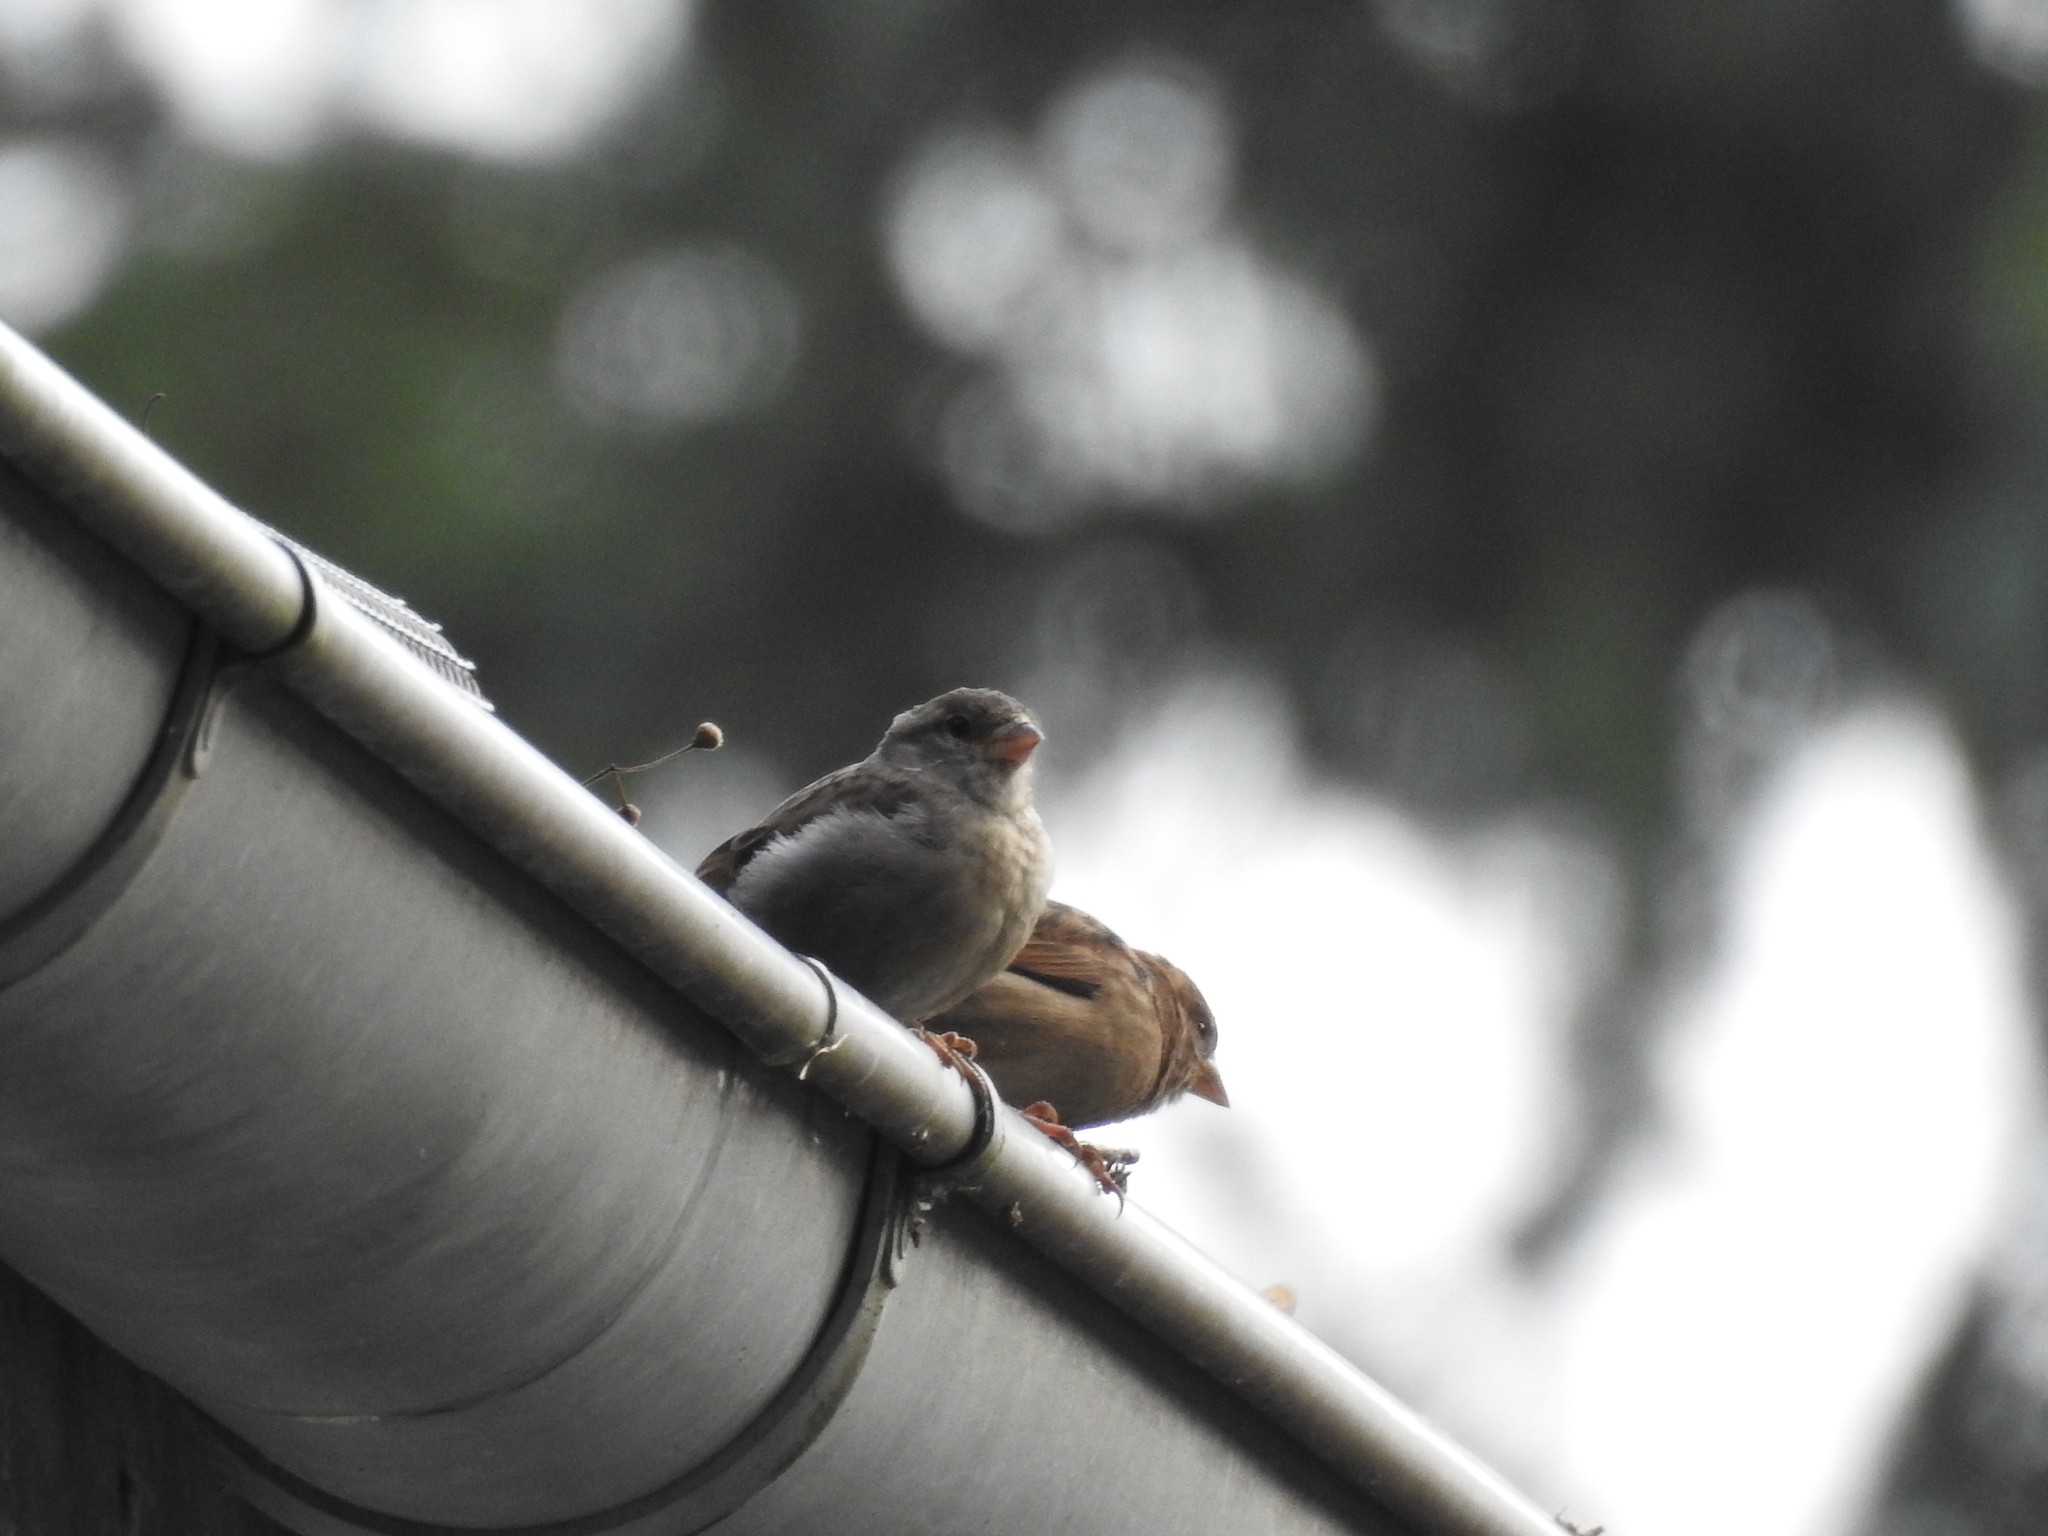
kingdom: Animalia
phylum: Chordata
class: Aves
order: Passeriformes
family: Passeridae
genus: Passer
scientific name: Passer domesticus
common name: House sparrow
